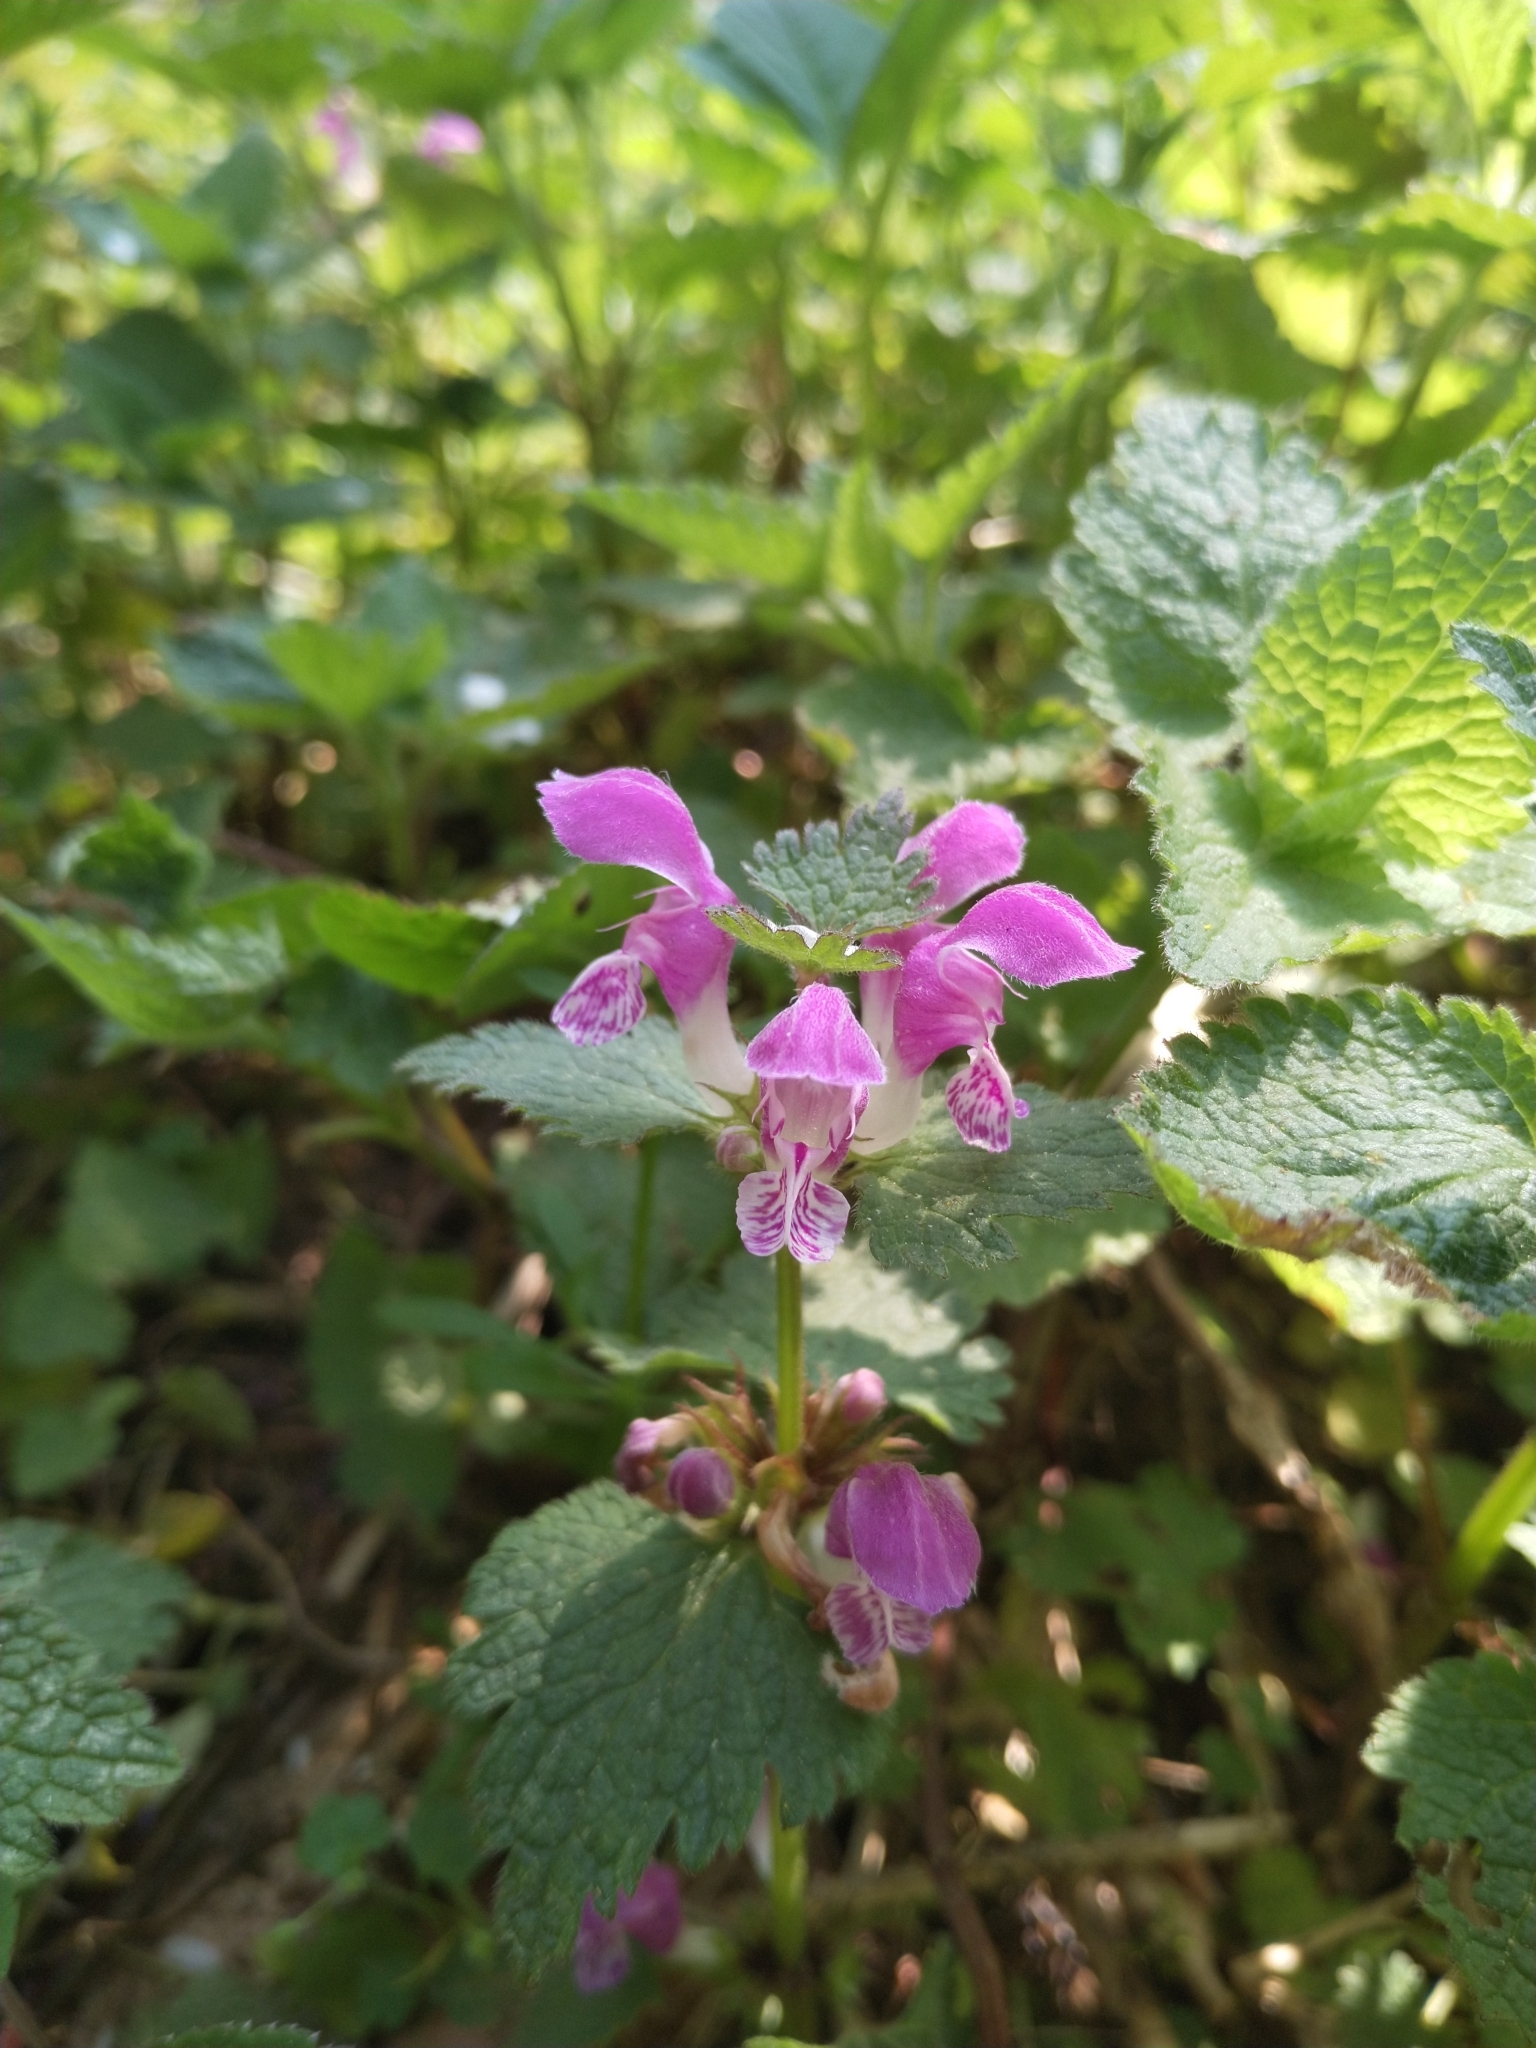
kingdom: Plantae
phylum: Tracheophyta
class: Magnoliopsida
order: Lamiales
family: Lamiaceae
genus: Lamium
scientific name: Lamium maculatum
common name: Spotted dead-nettle
